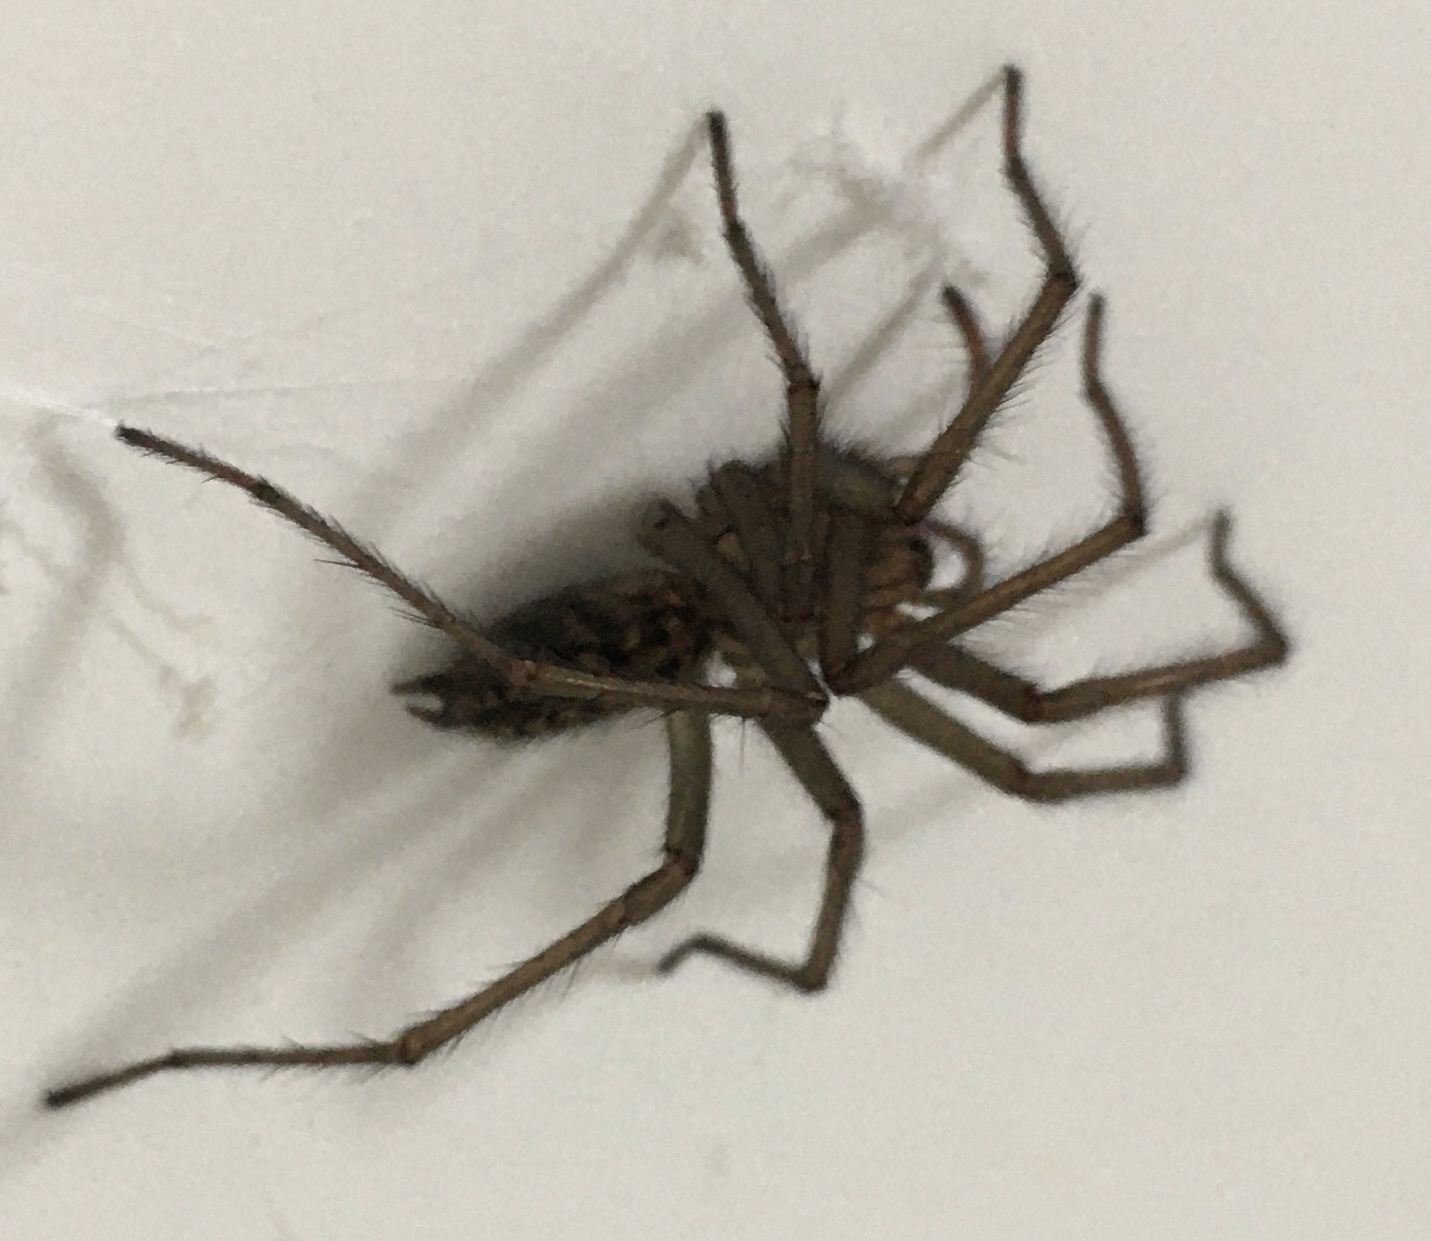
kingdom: Animalia
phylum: Arthropoda
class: Arachnida
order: Araneae
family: Agelenidae
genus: Eratigena
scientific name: Eratigena
